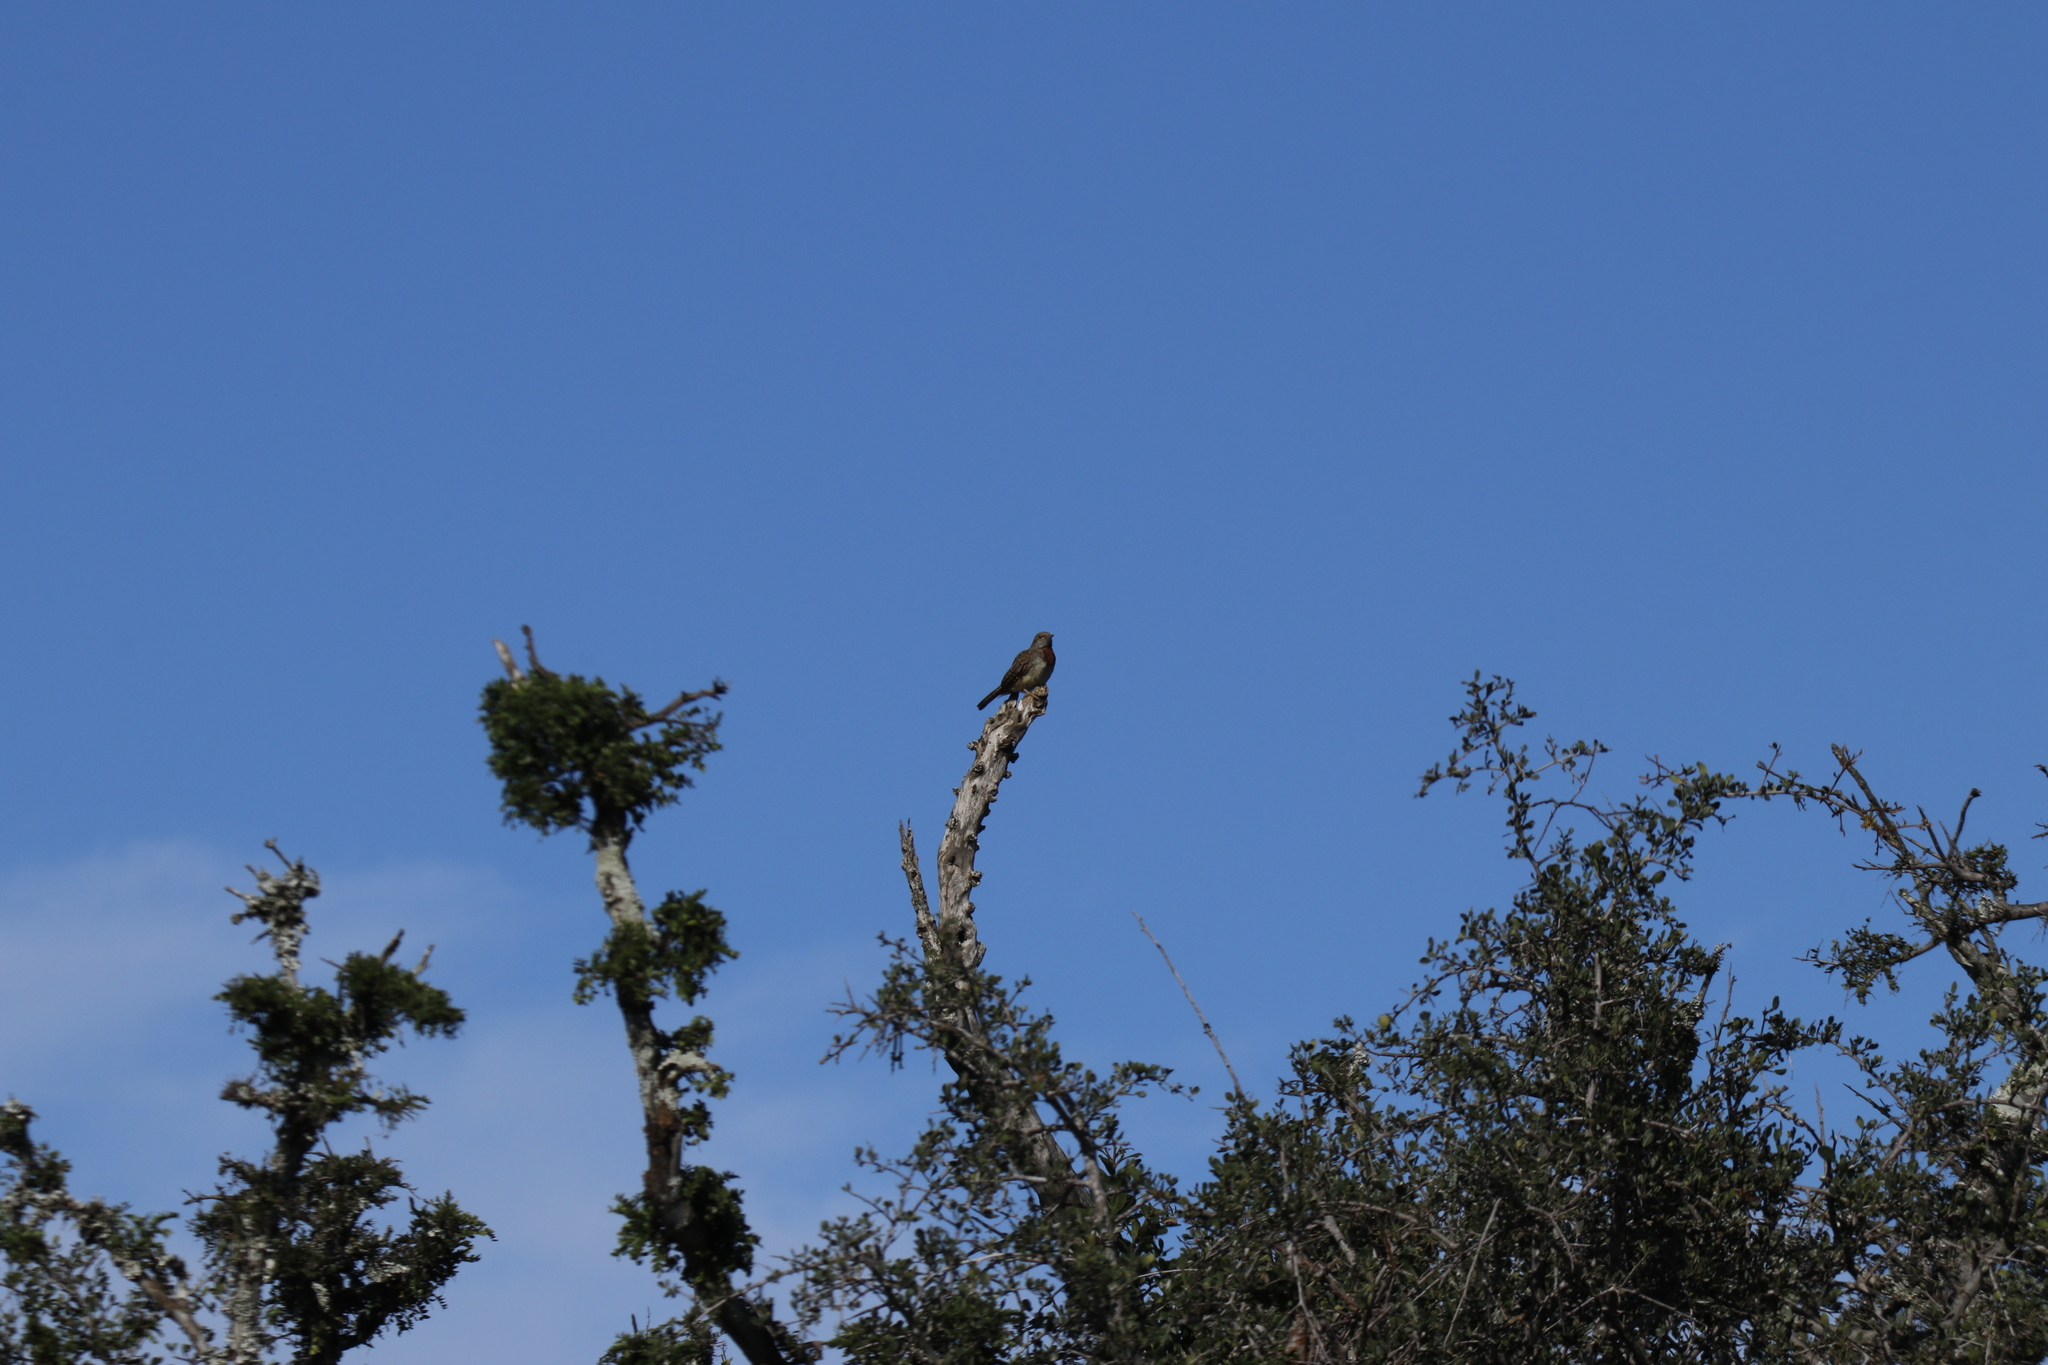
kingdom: Animalia
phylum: Chordata
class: Aves
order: Piciformes
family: Picidae
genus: Jynx
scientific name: Jynx ruficollis
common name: Red-throated wryneck
